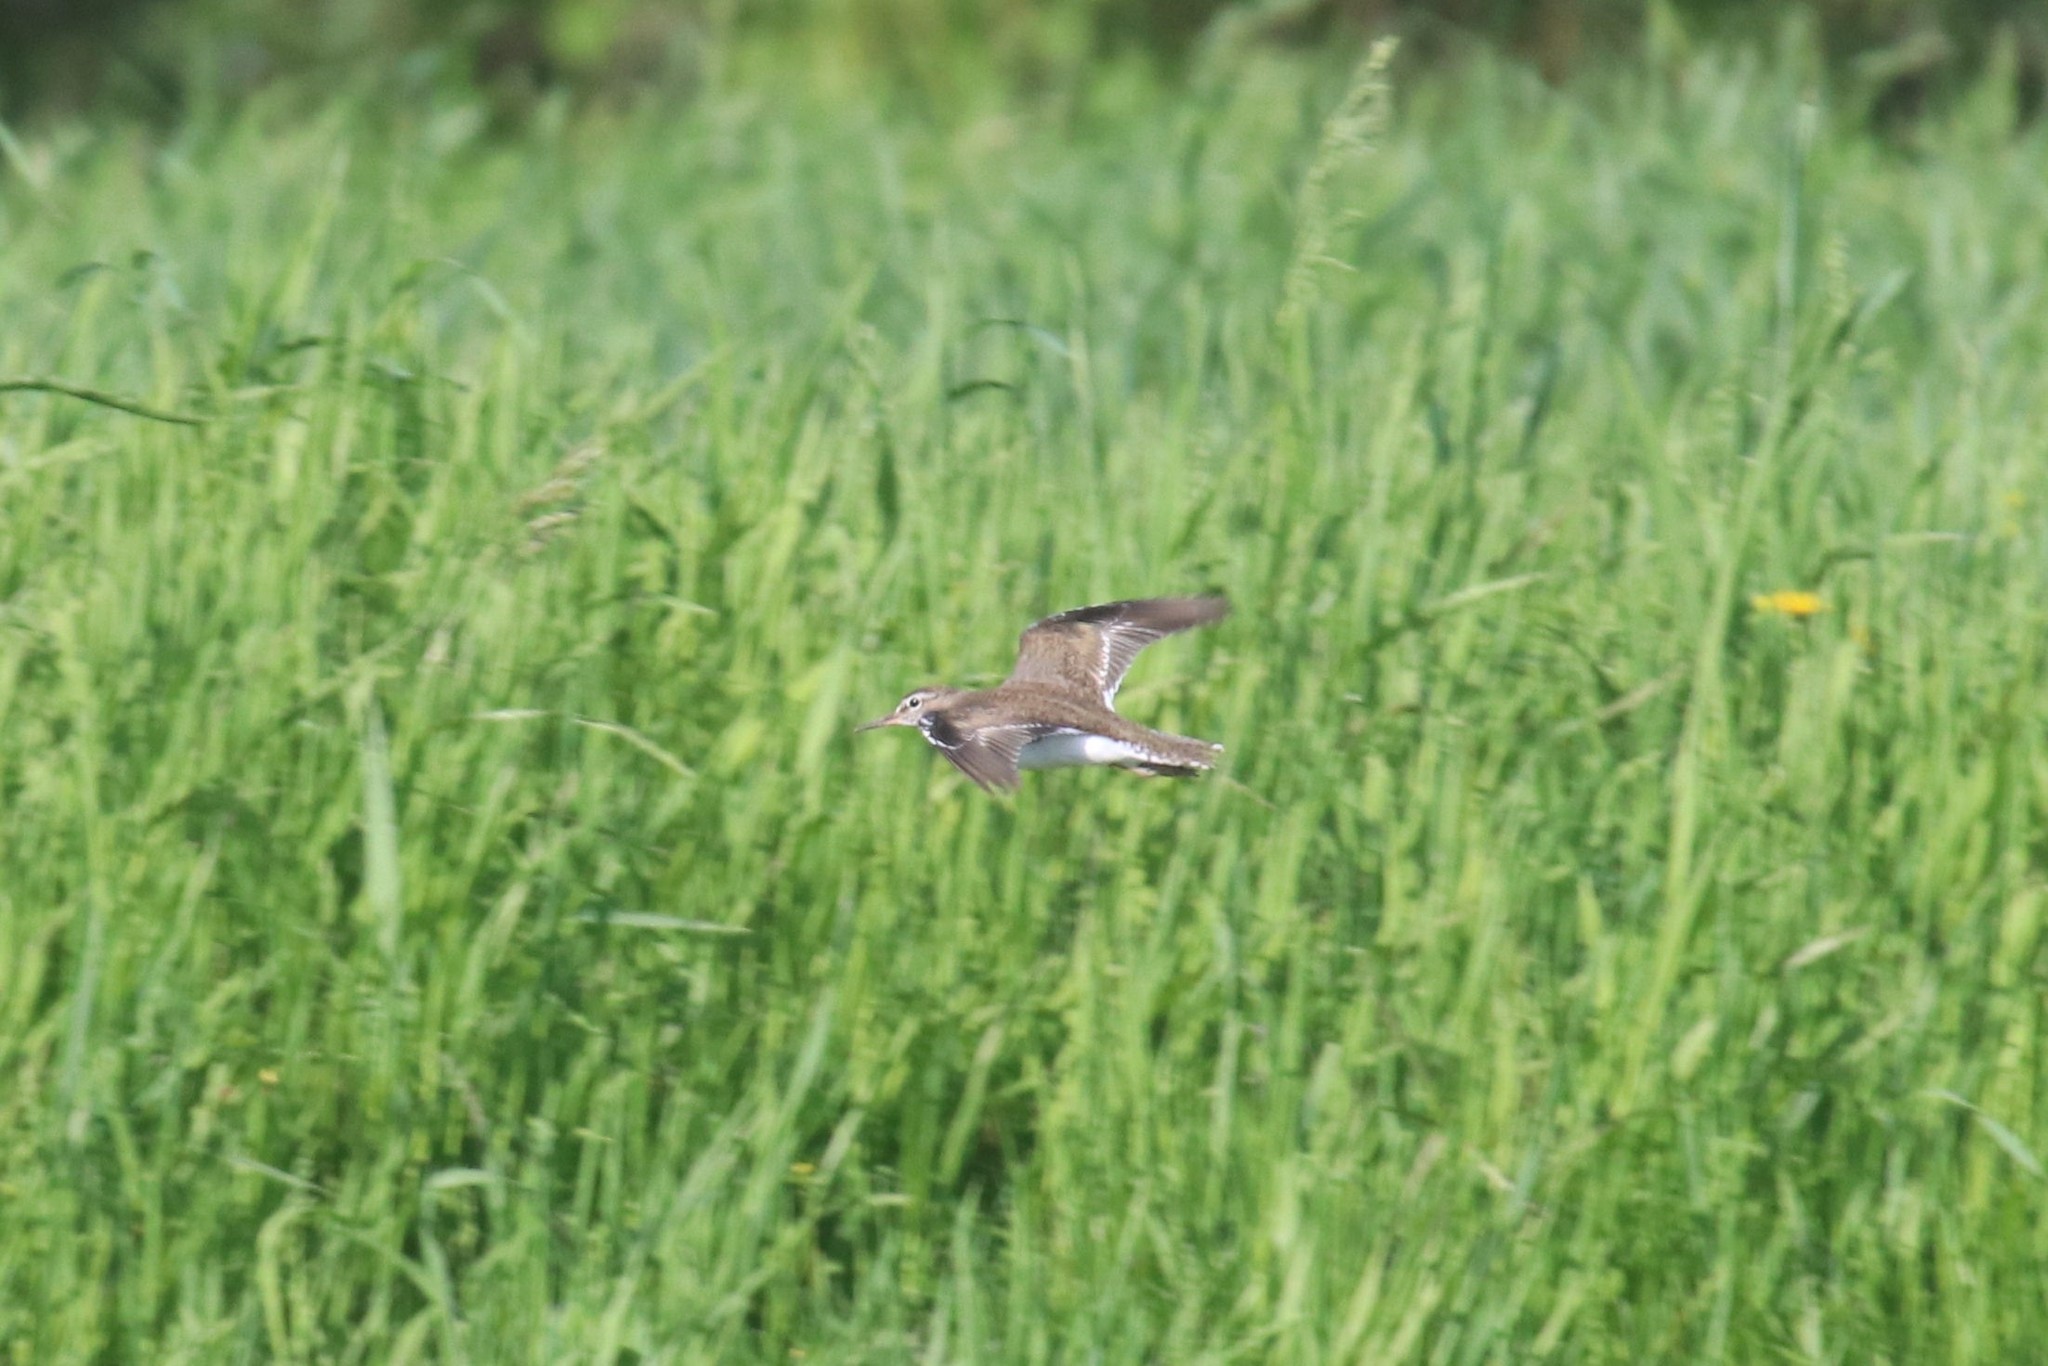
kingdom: Animalia
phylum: Chordata
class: Aves
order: Charadriiformes
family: Scolopacidae
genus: Actitis
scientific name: Actitis hypoleucos
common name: Common sandpiper
